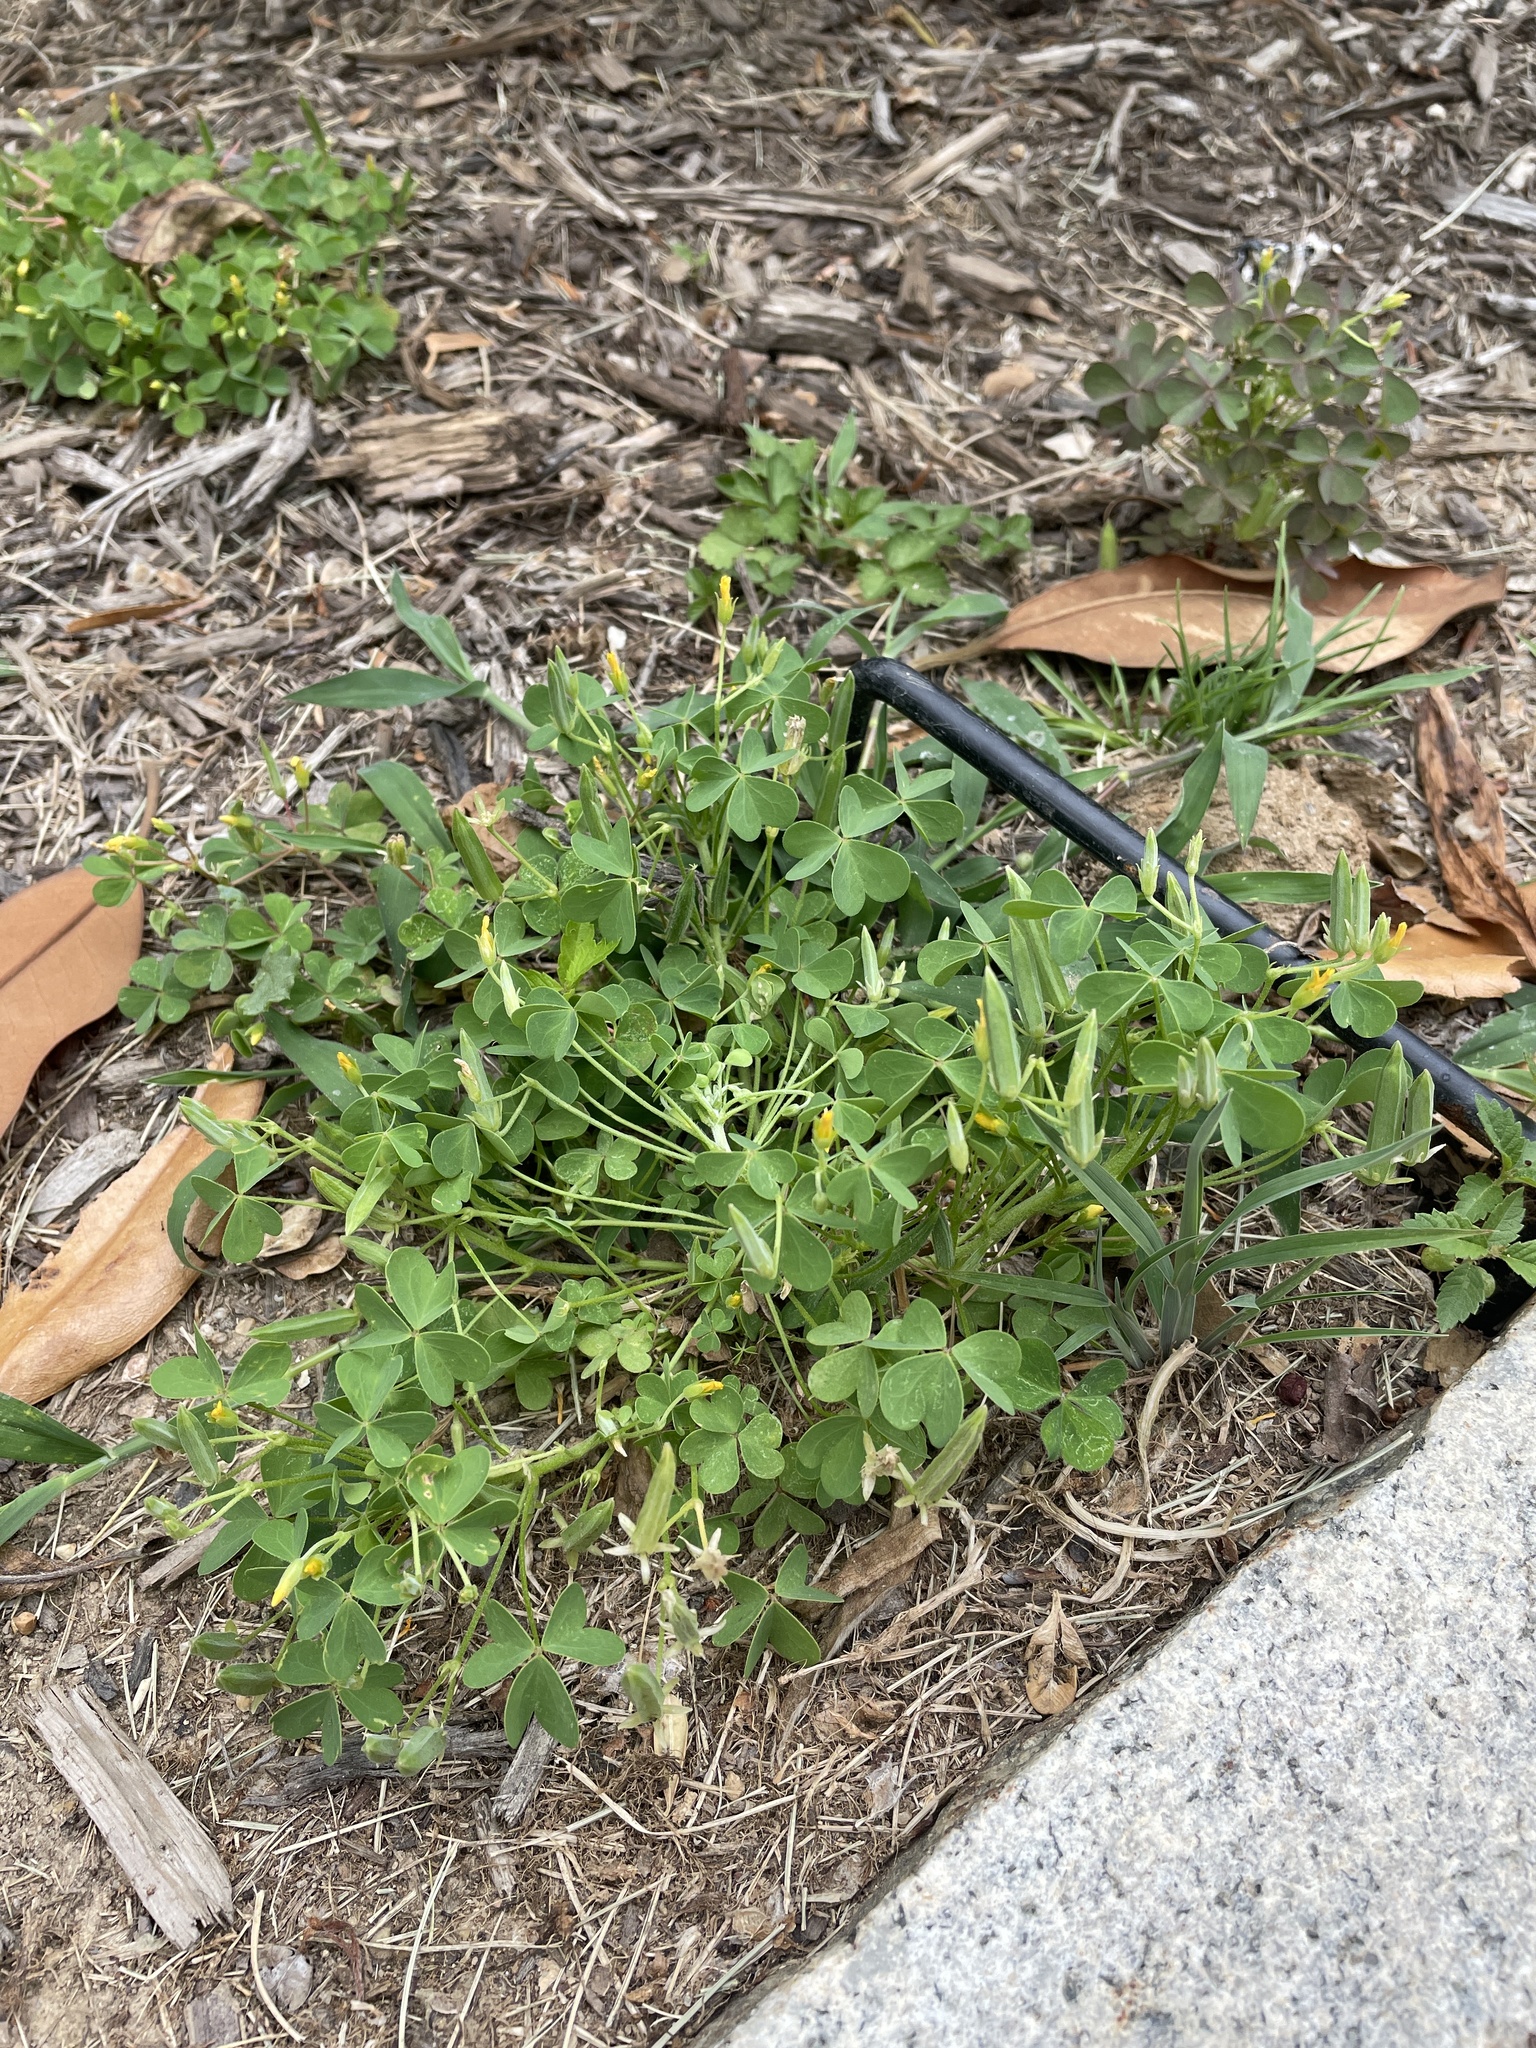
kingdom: Plantae
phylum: Tracheophyta
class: Magnoliopsida
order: Oxalidales
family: Oxalidaceae
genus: Oxalis
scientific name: Oxalis dillenii
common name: Sussex yellow-sorrel
